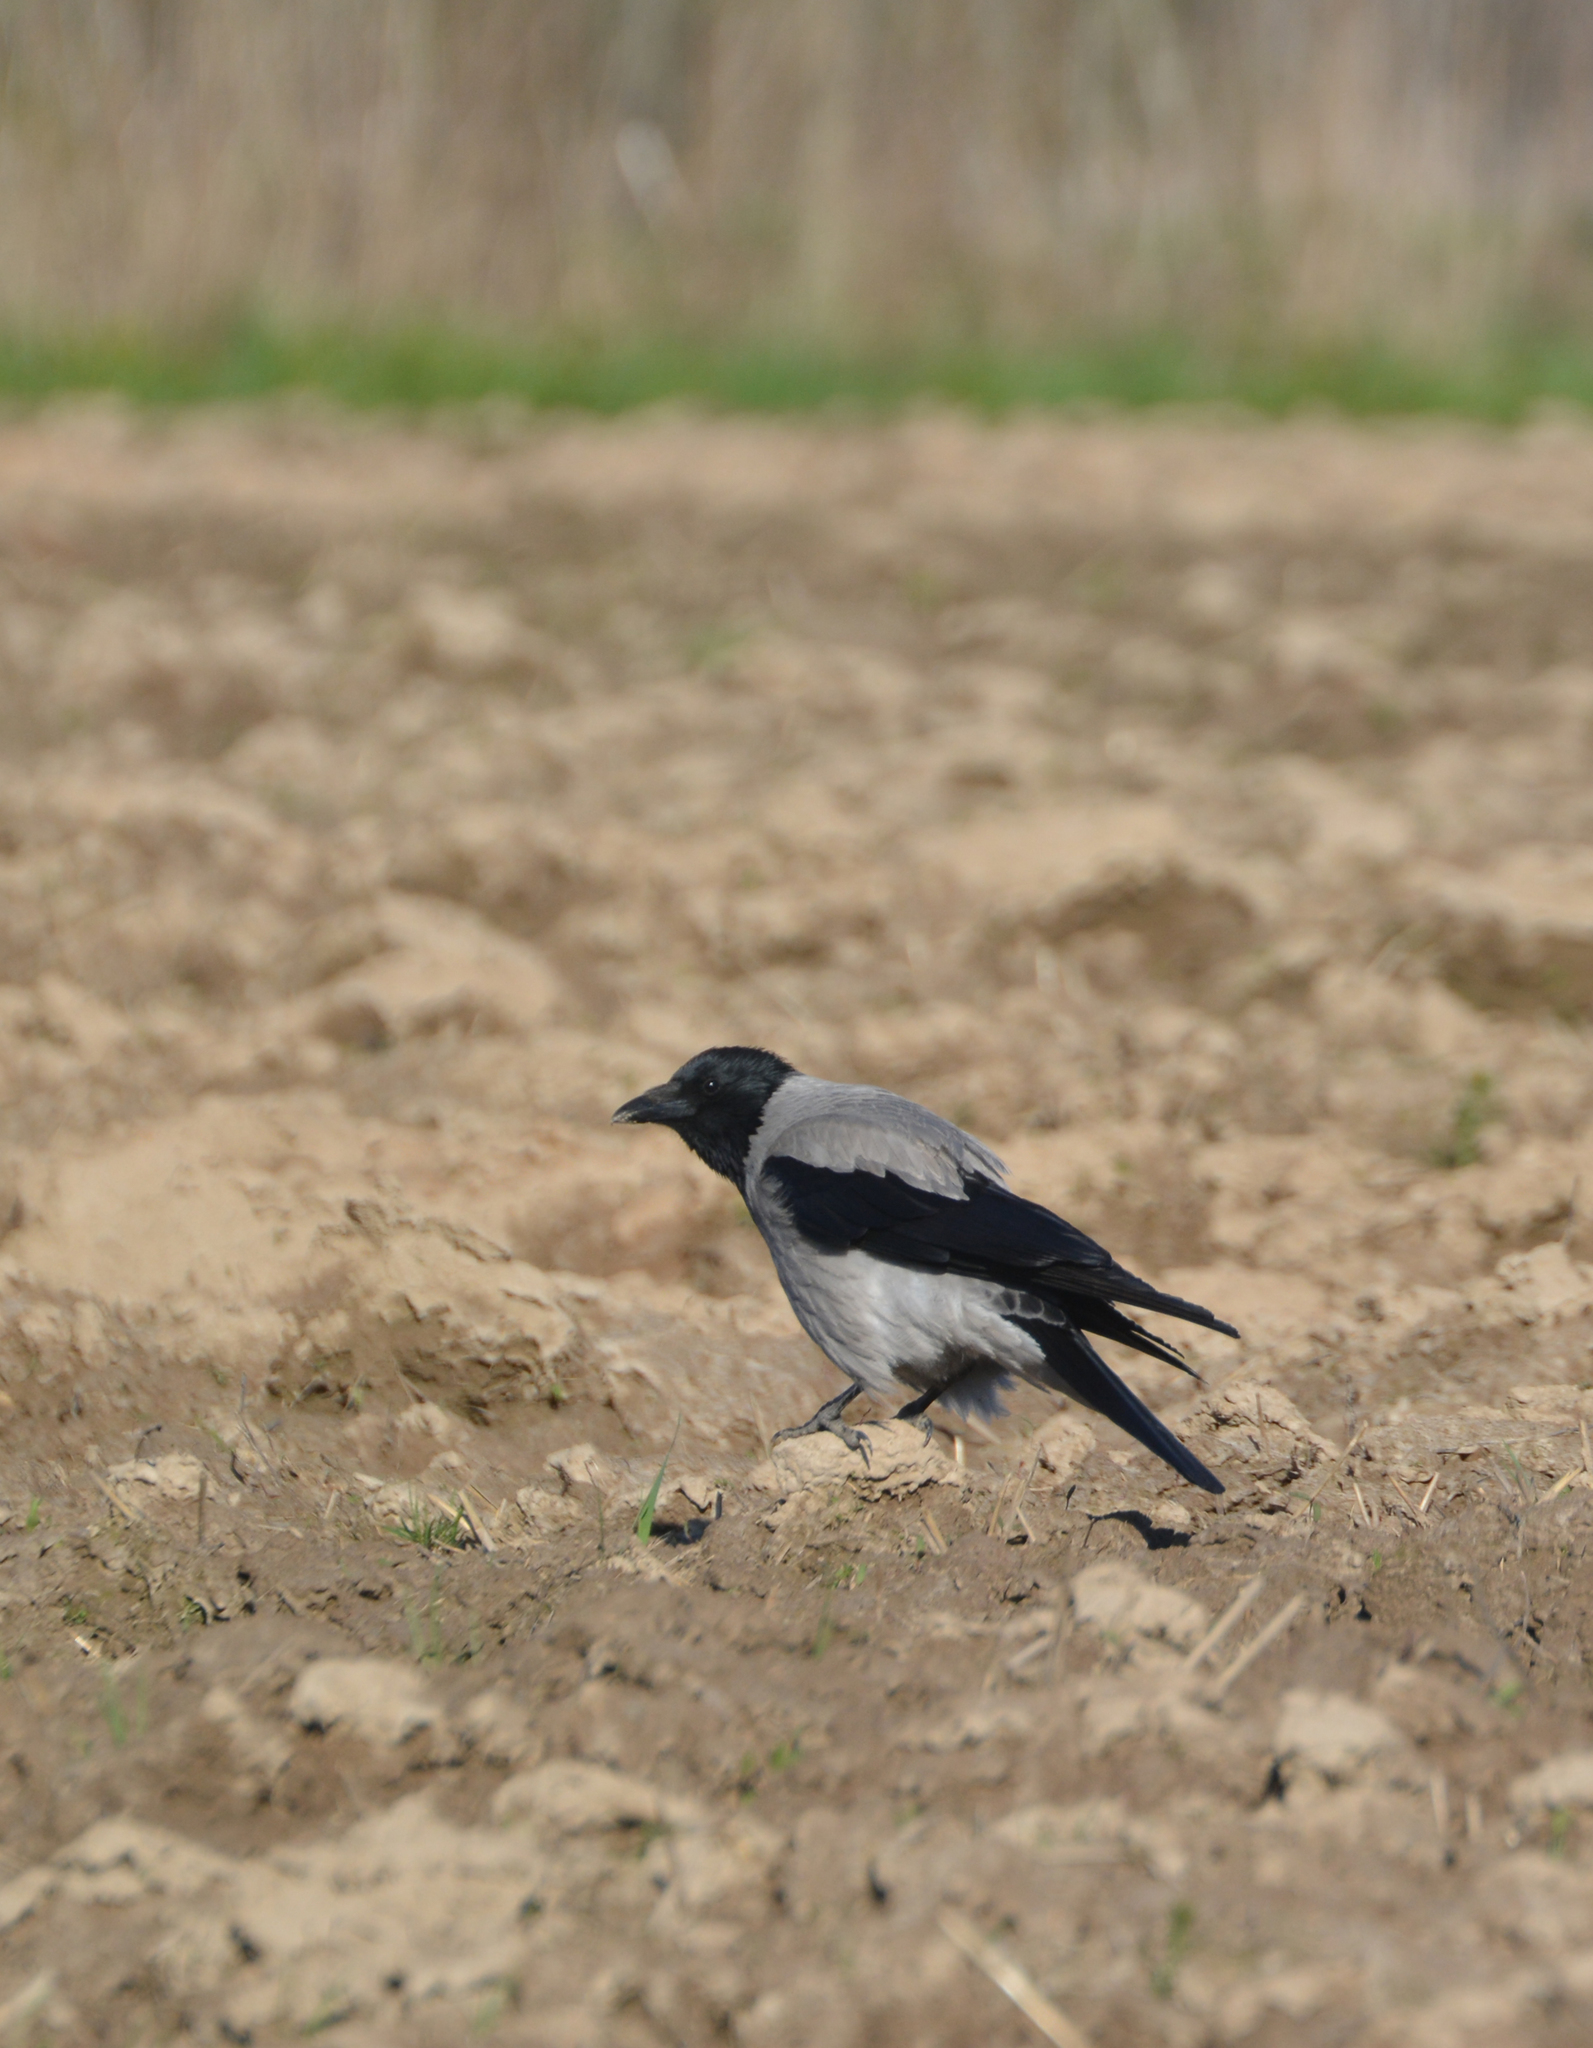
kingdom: Animalia
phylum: Chordata
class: Aves
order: Passeriformes
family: Corvidae
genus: Corvus
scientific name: Corvus cornix
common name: Hooded crow
